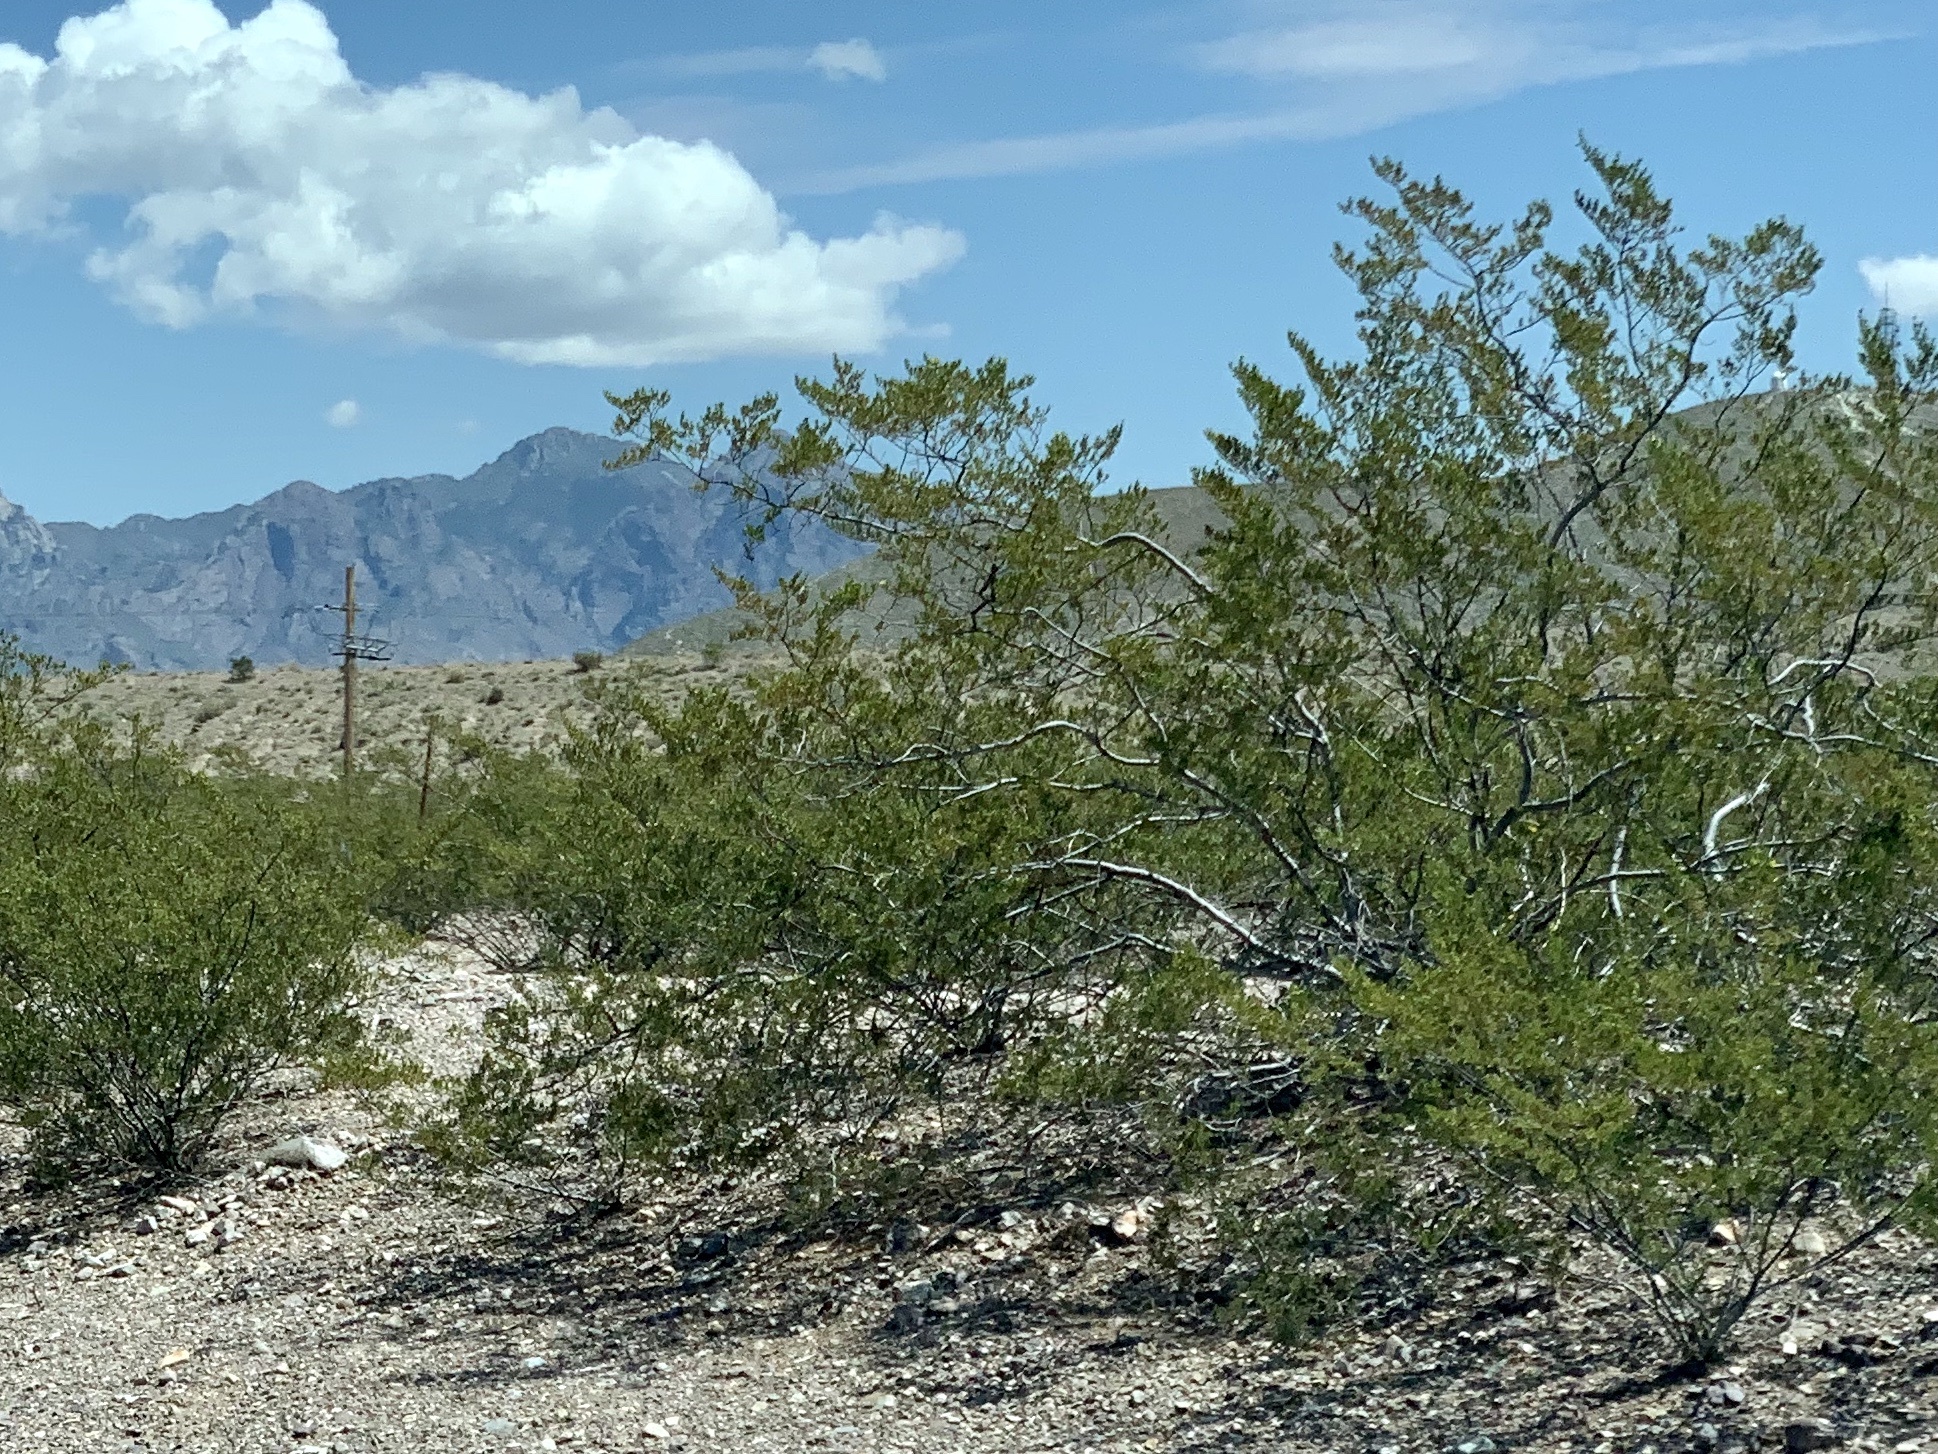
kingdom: Plantae
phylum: Tracheophyta
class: Magnoliopsida
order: Zygophyllales
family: Zygophyllaceae
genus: Larrea
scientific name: Larrea tridentata
